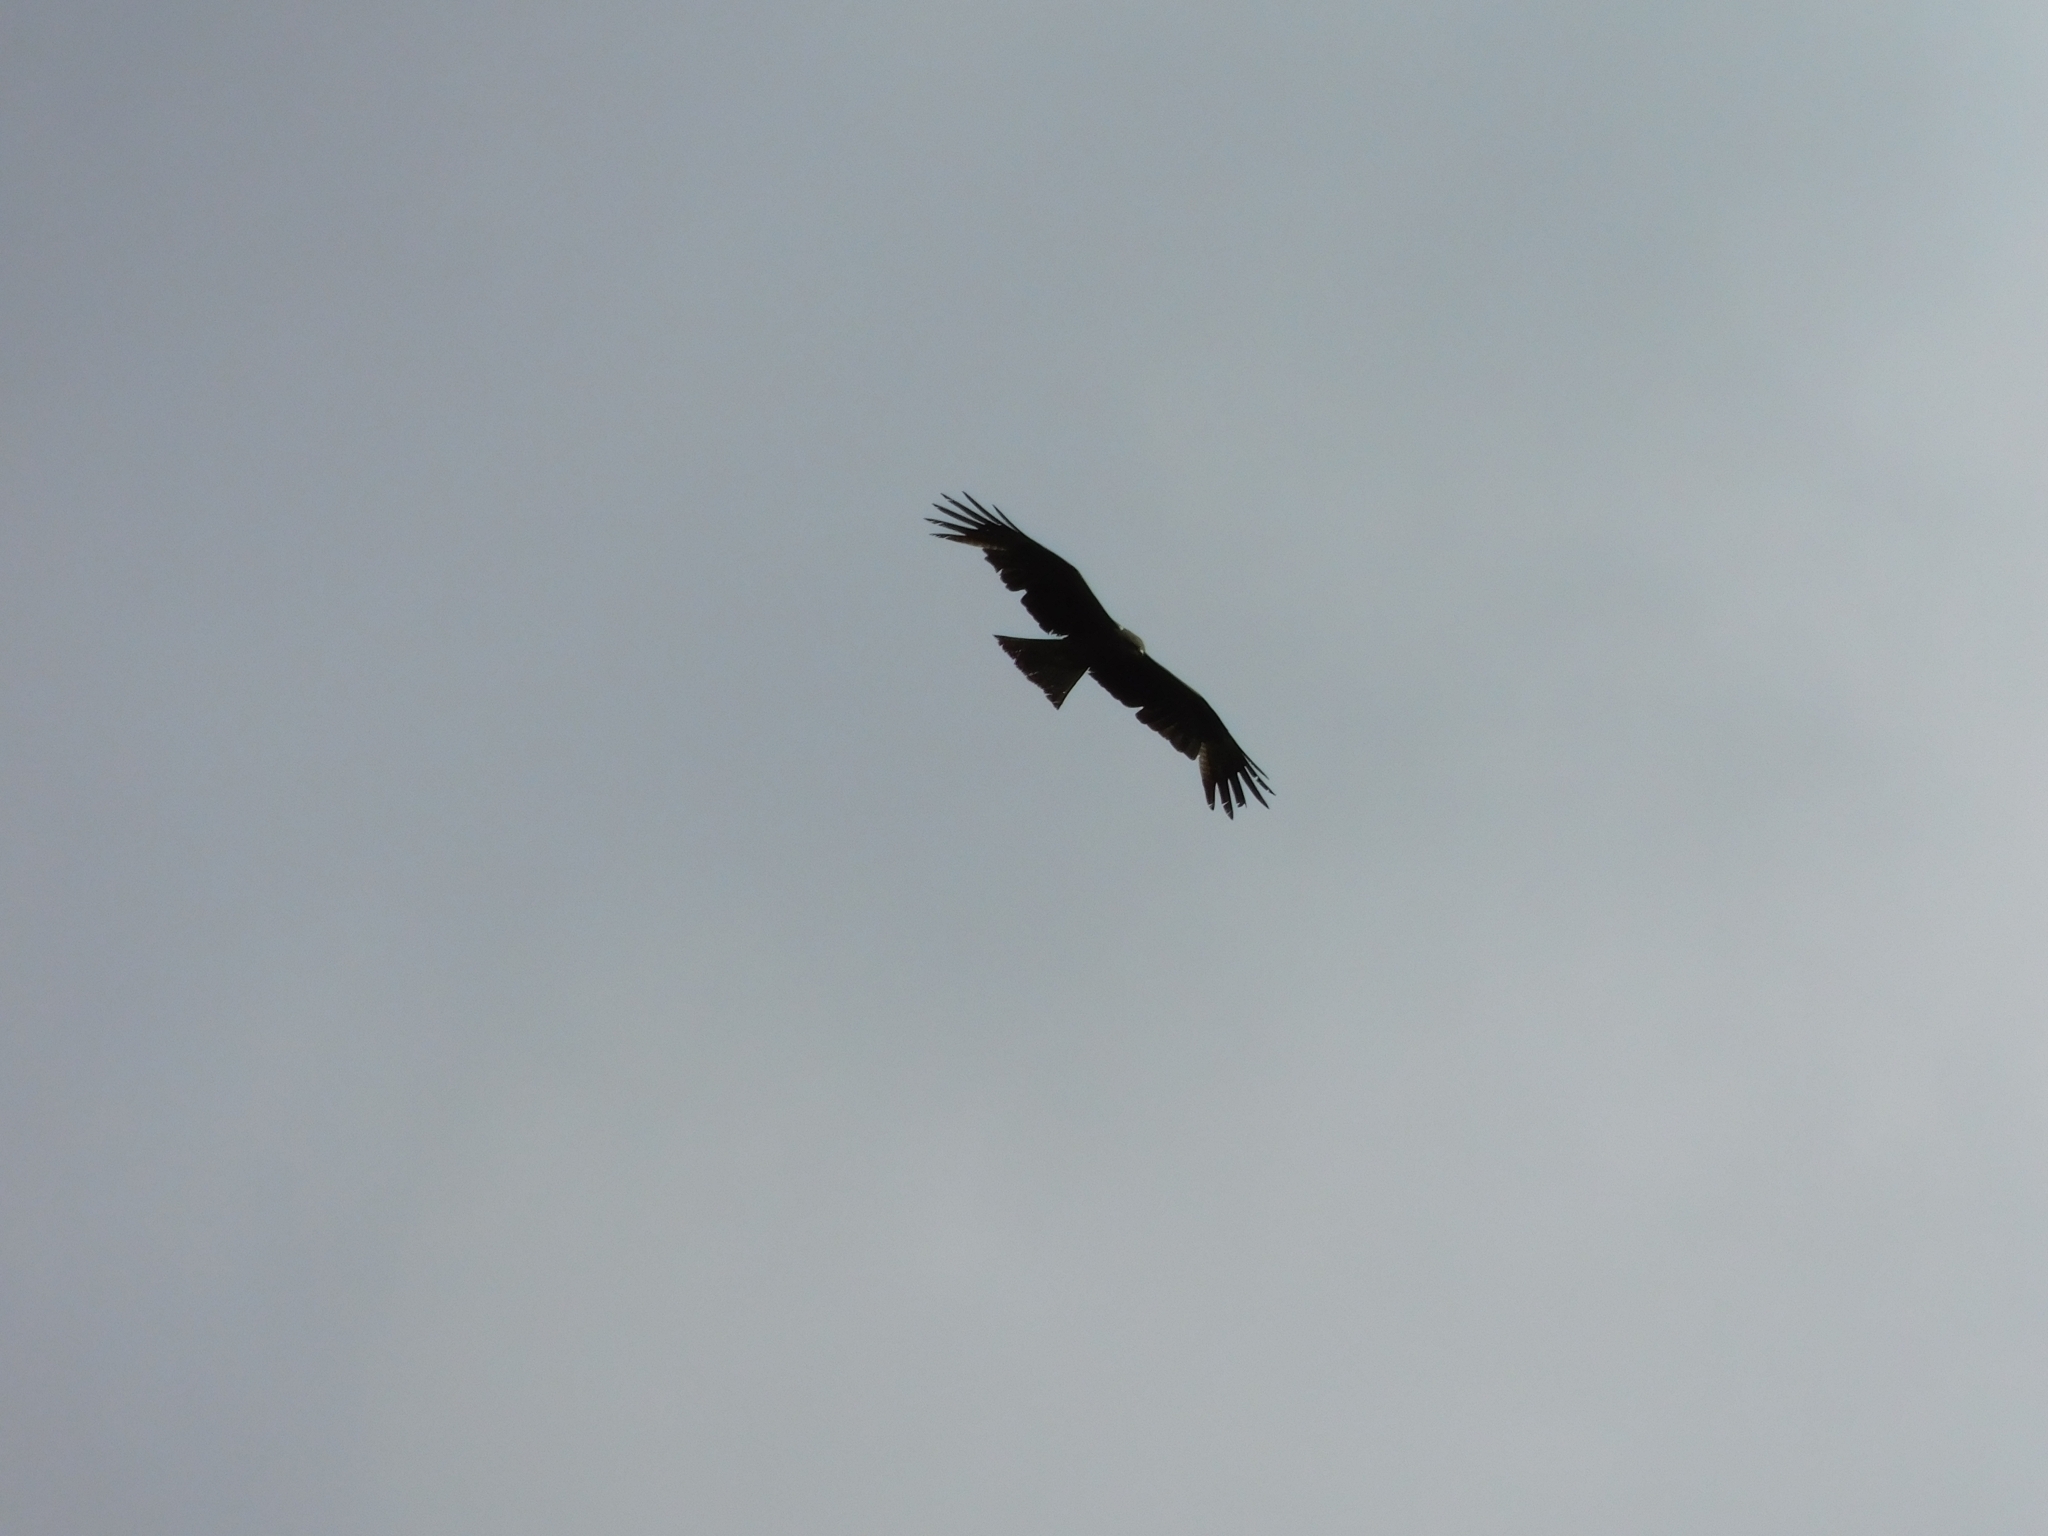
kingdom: Animalia
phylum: Chordata
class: Aves
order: Accipitriformes
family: Accipitridae
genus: Milvus
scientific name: Milvus migrans
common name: Black kite
